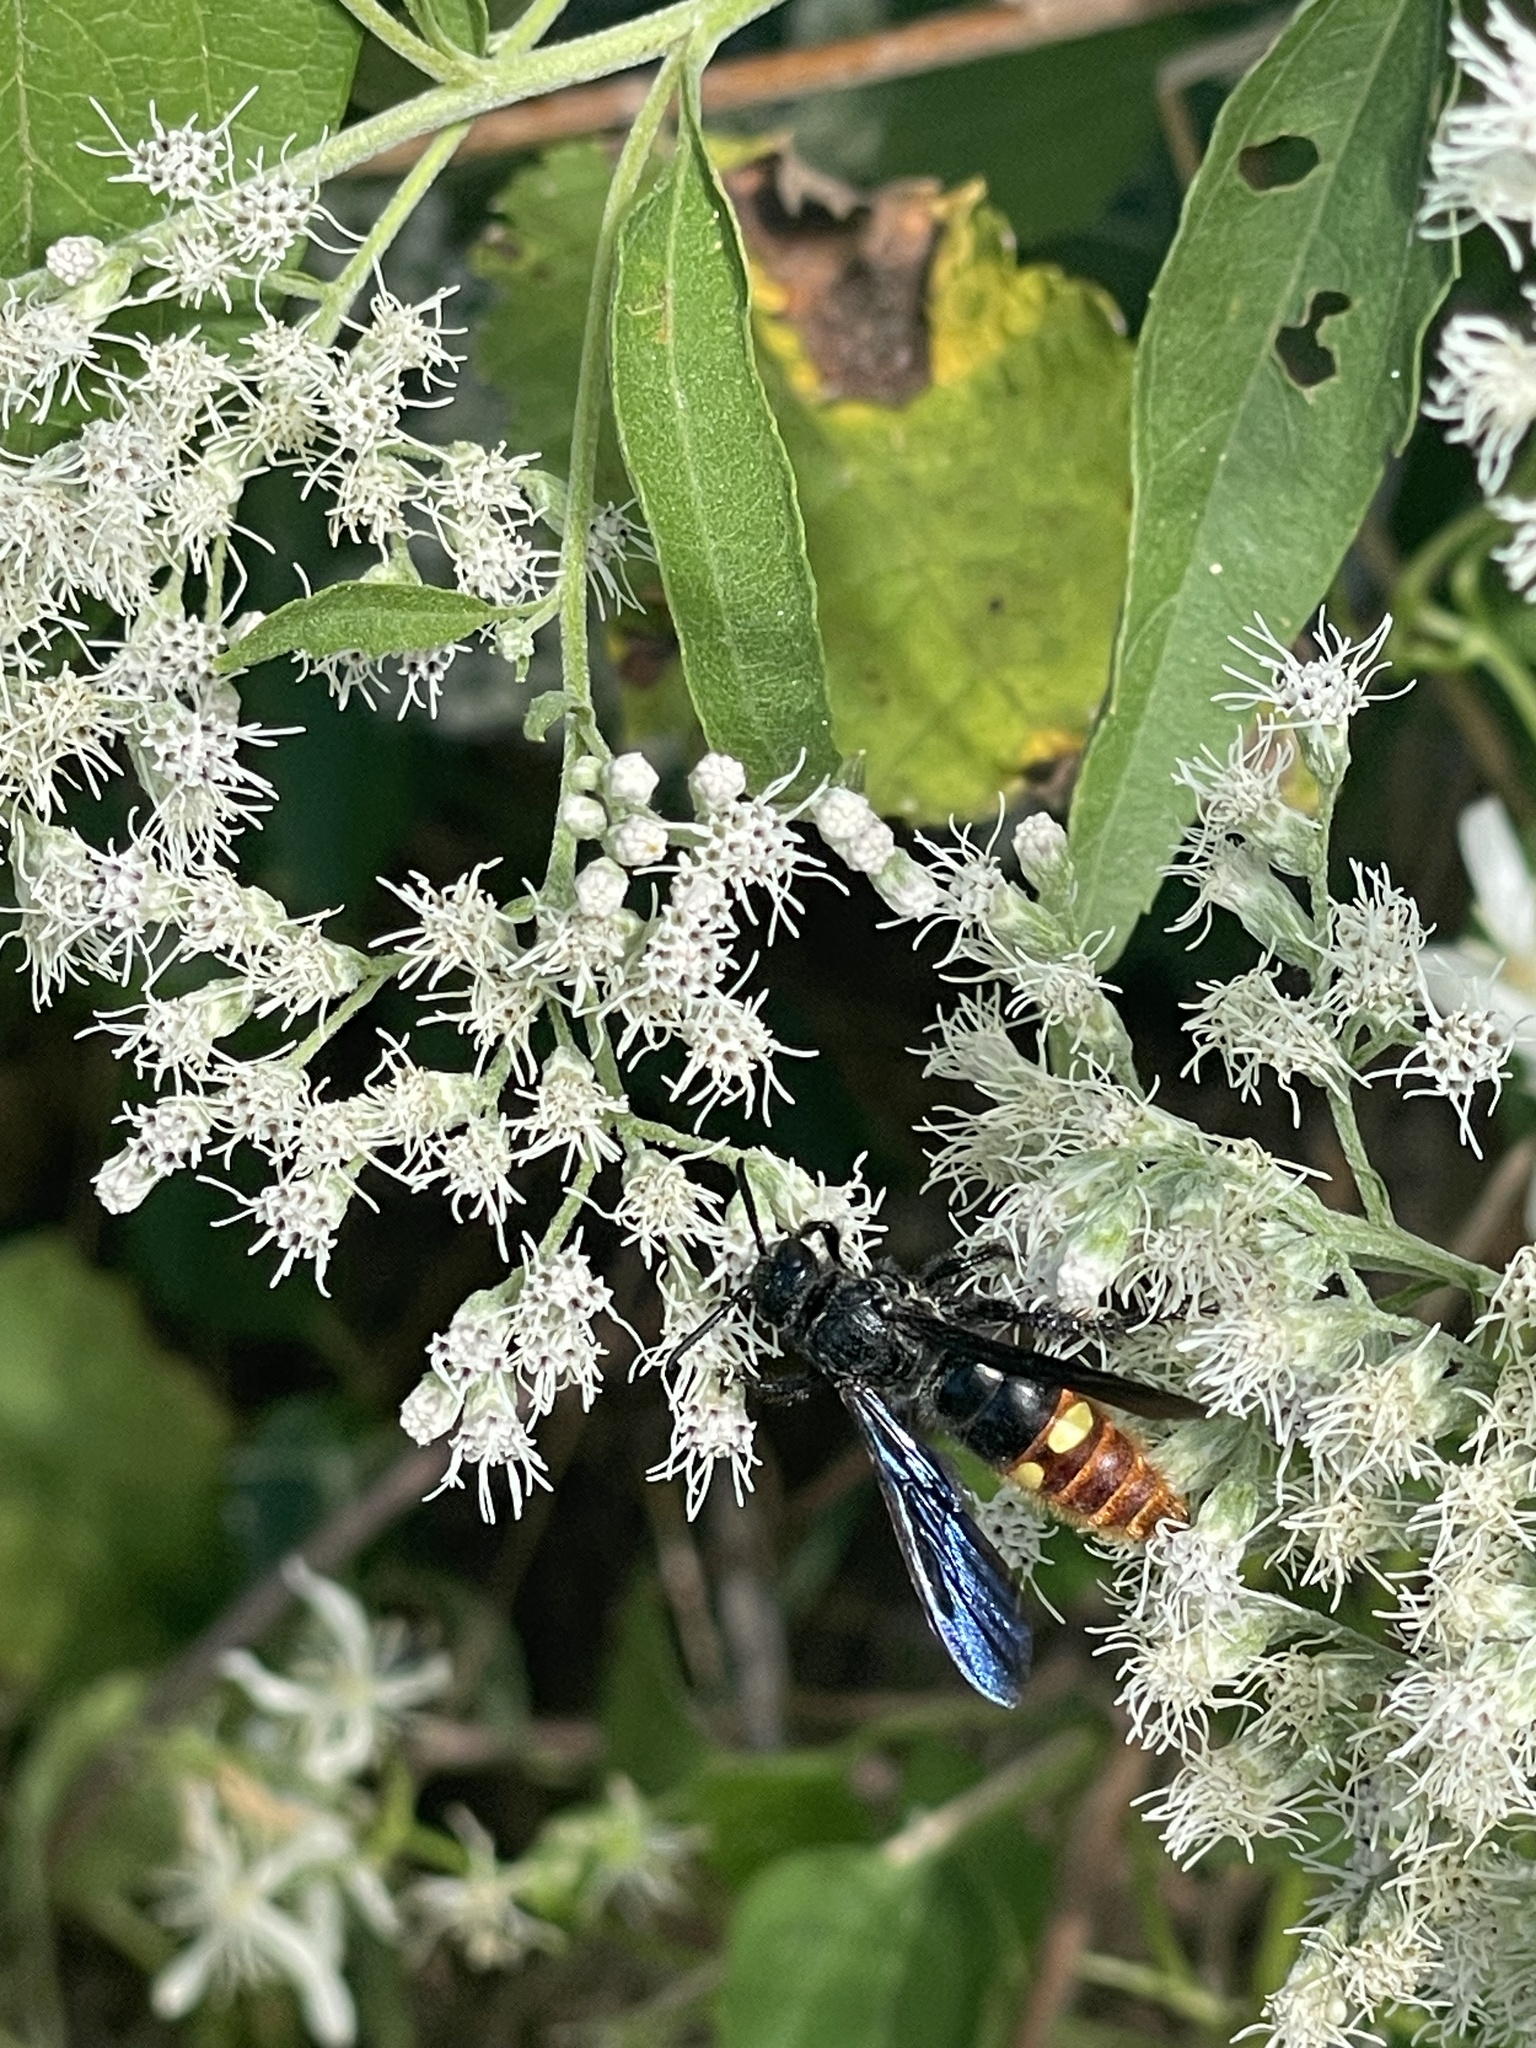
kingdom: Animalia
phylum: Arthropoda
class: Insecta
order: Hymenoptera
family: Scoliidae
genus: Scolia
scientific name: Scolia dubia
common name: Blue-winged scoliid wasp
